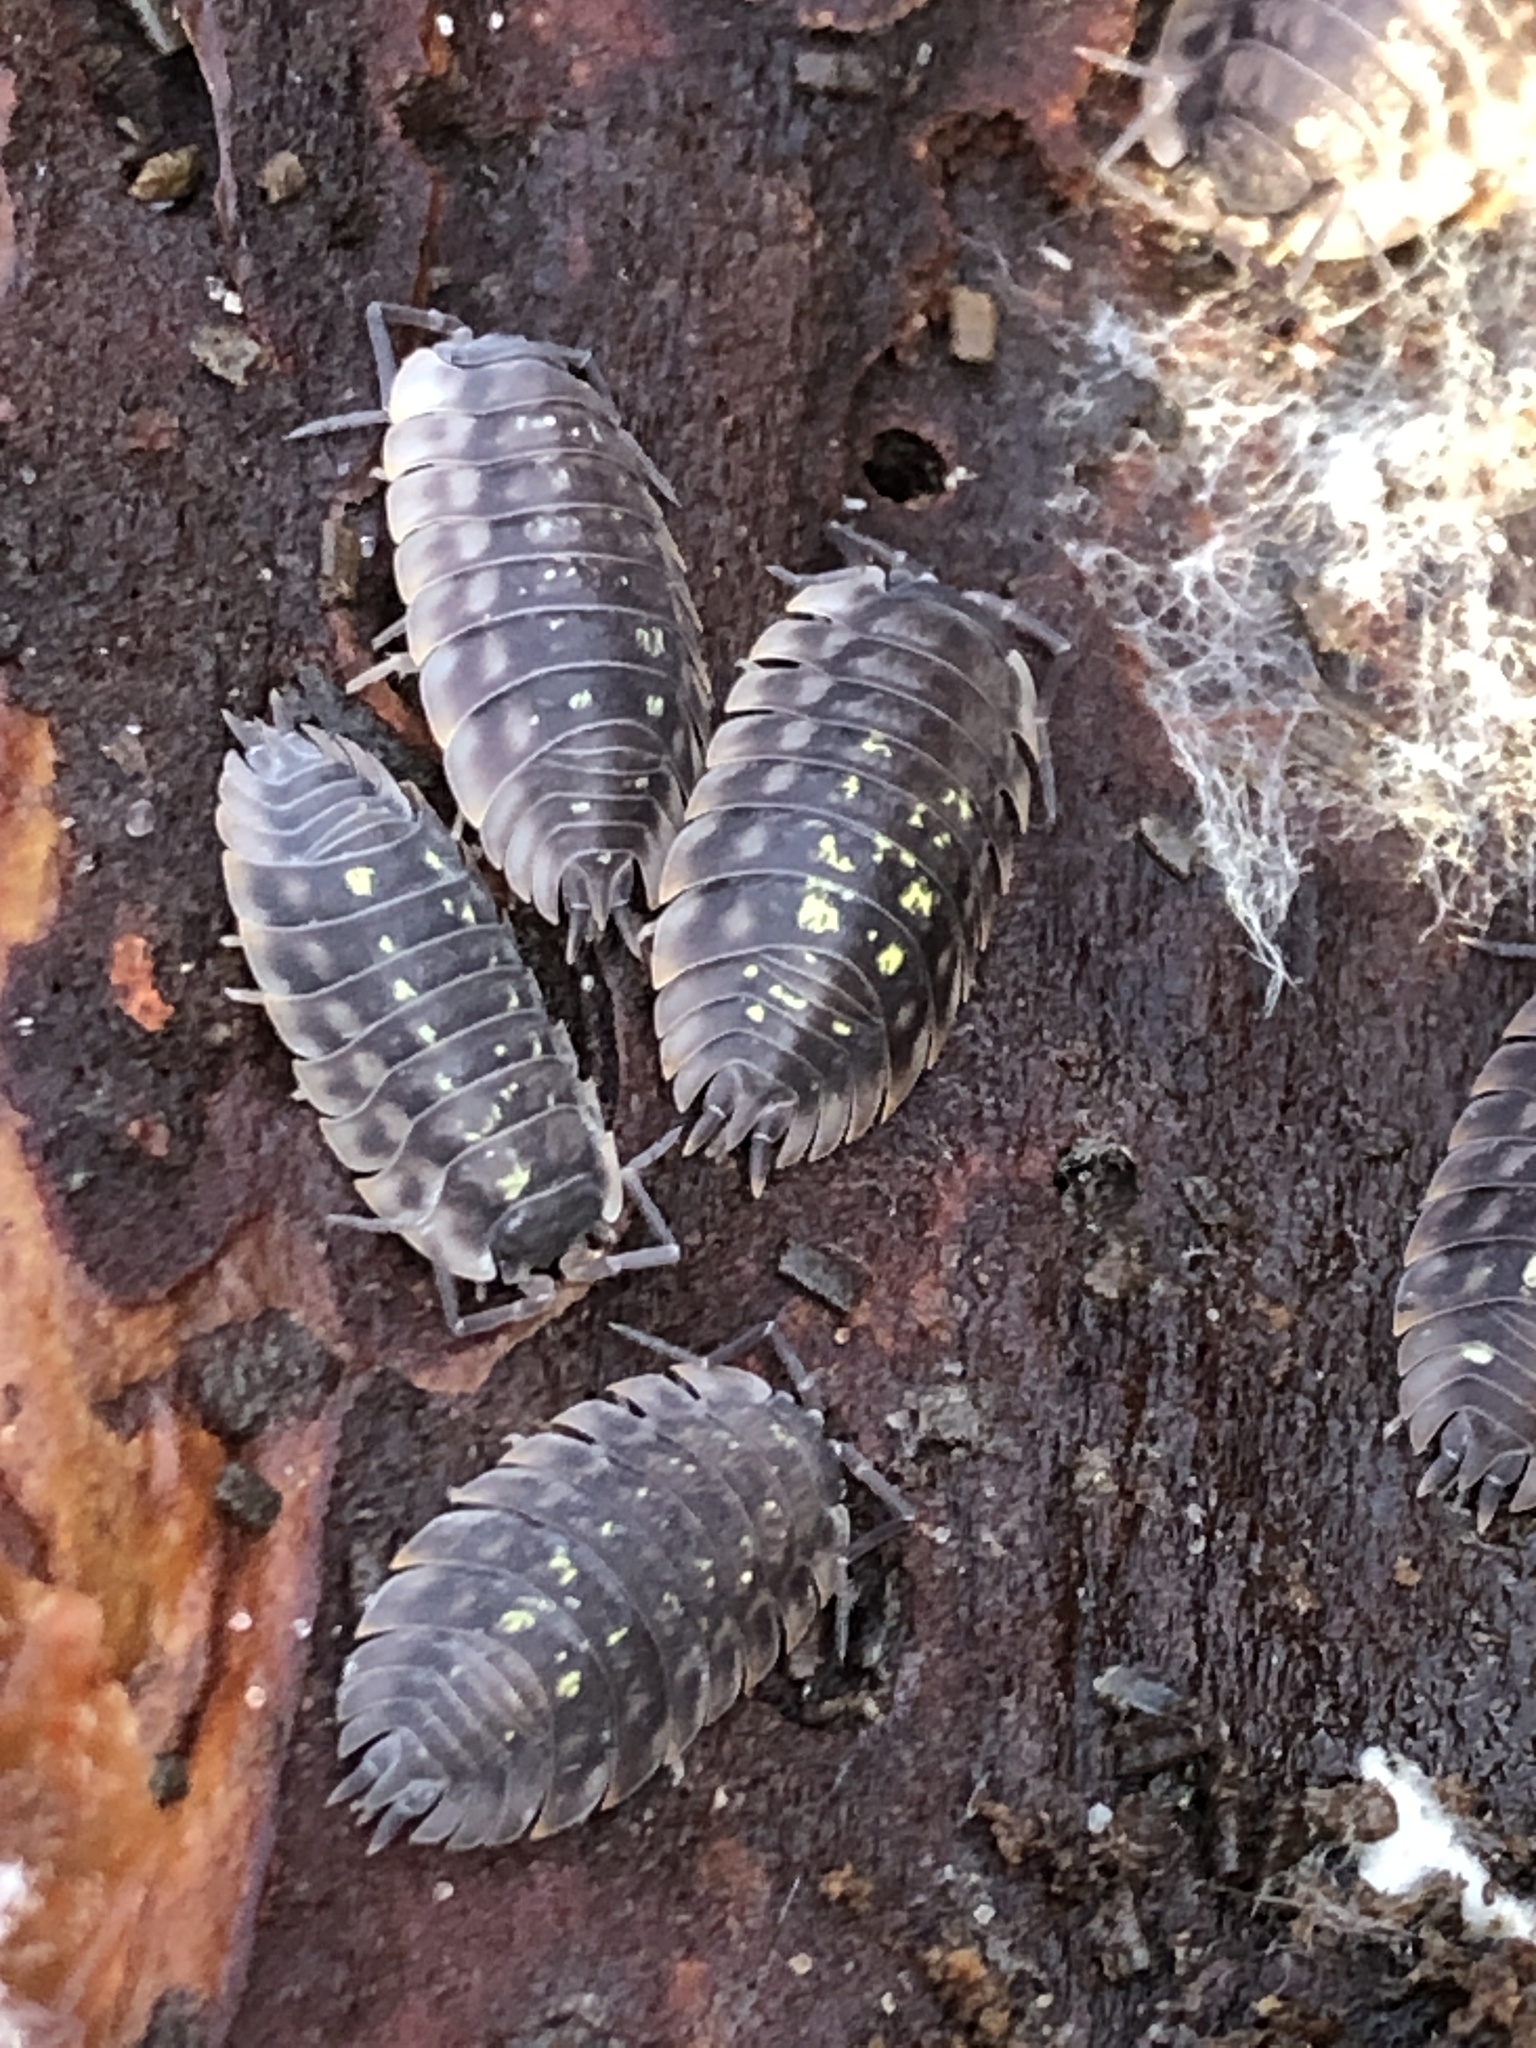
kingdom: Animalia
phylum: Arthropoda
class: Malacostraca
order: Isopoda
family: Oniscidae
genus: Oniscus
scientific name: Oniscus asellus
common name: Common shiny woodlouse
